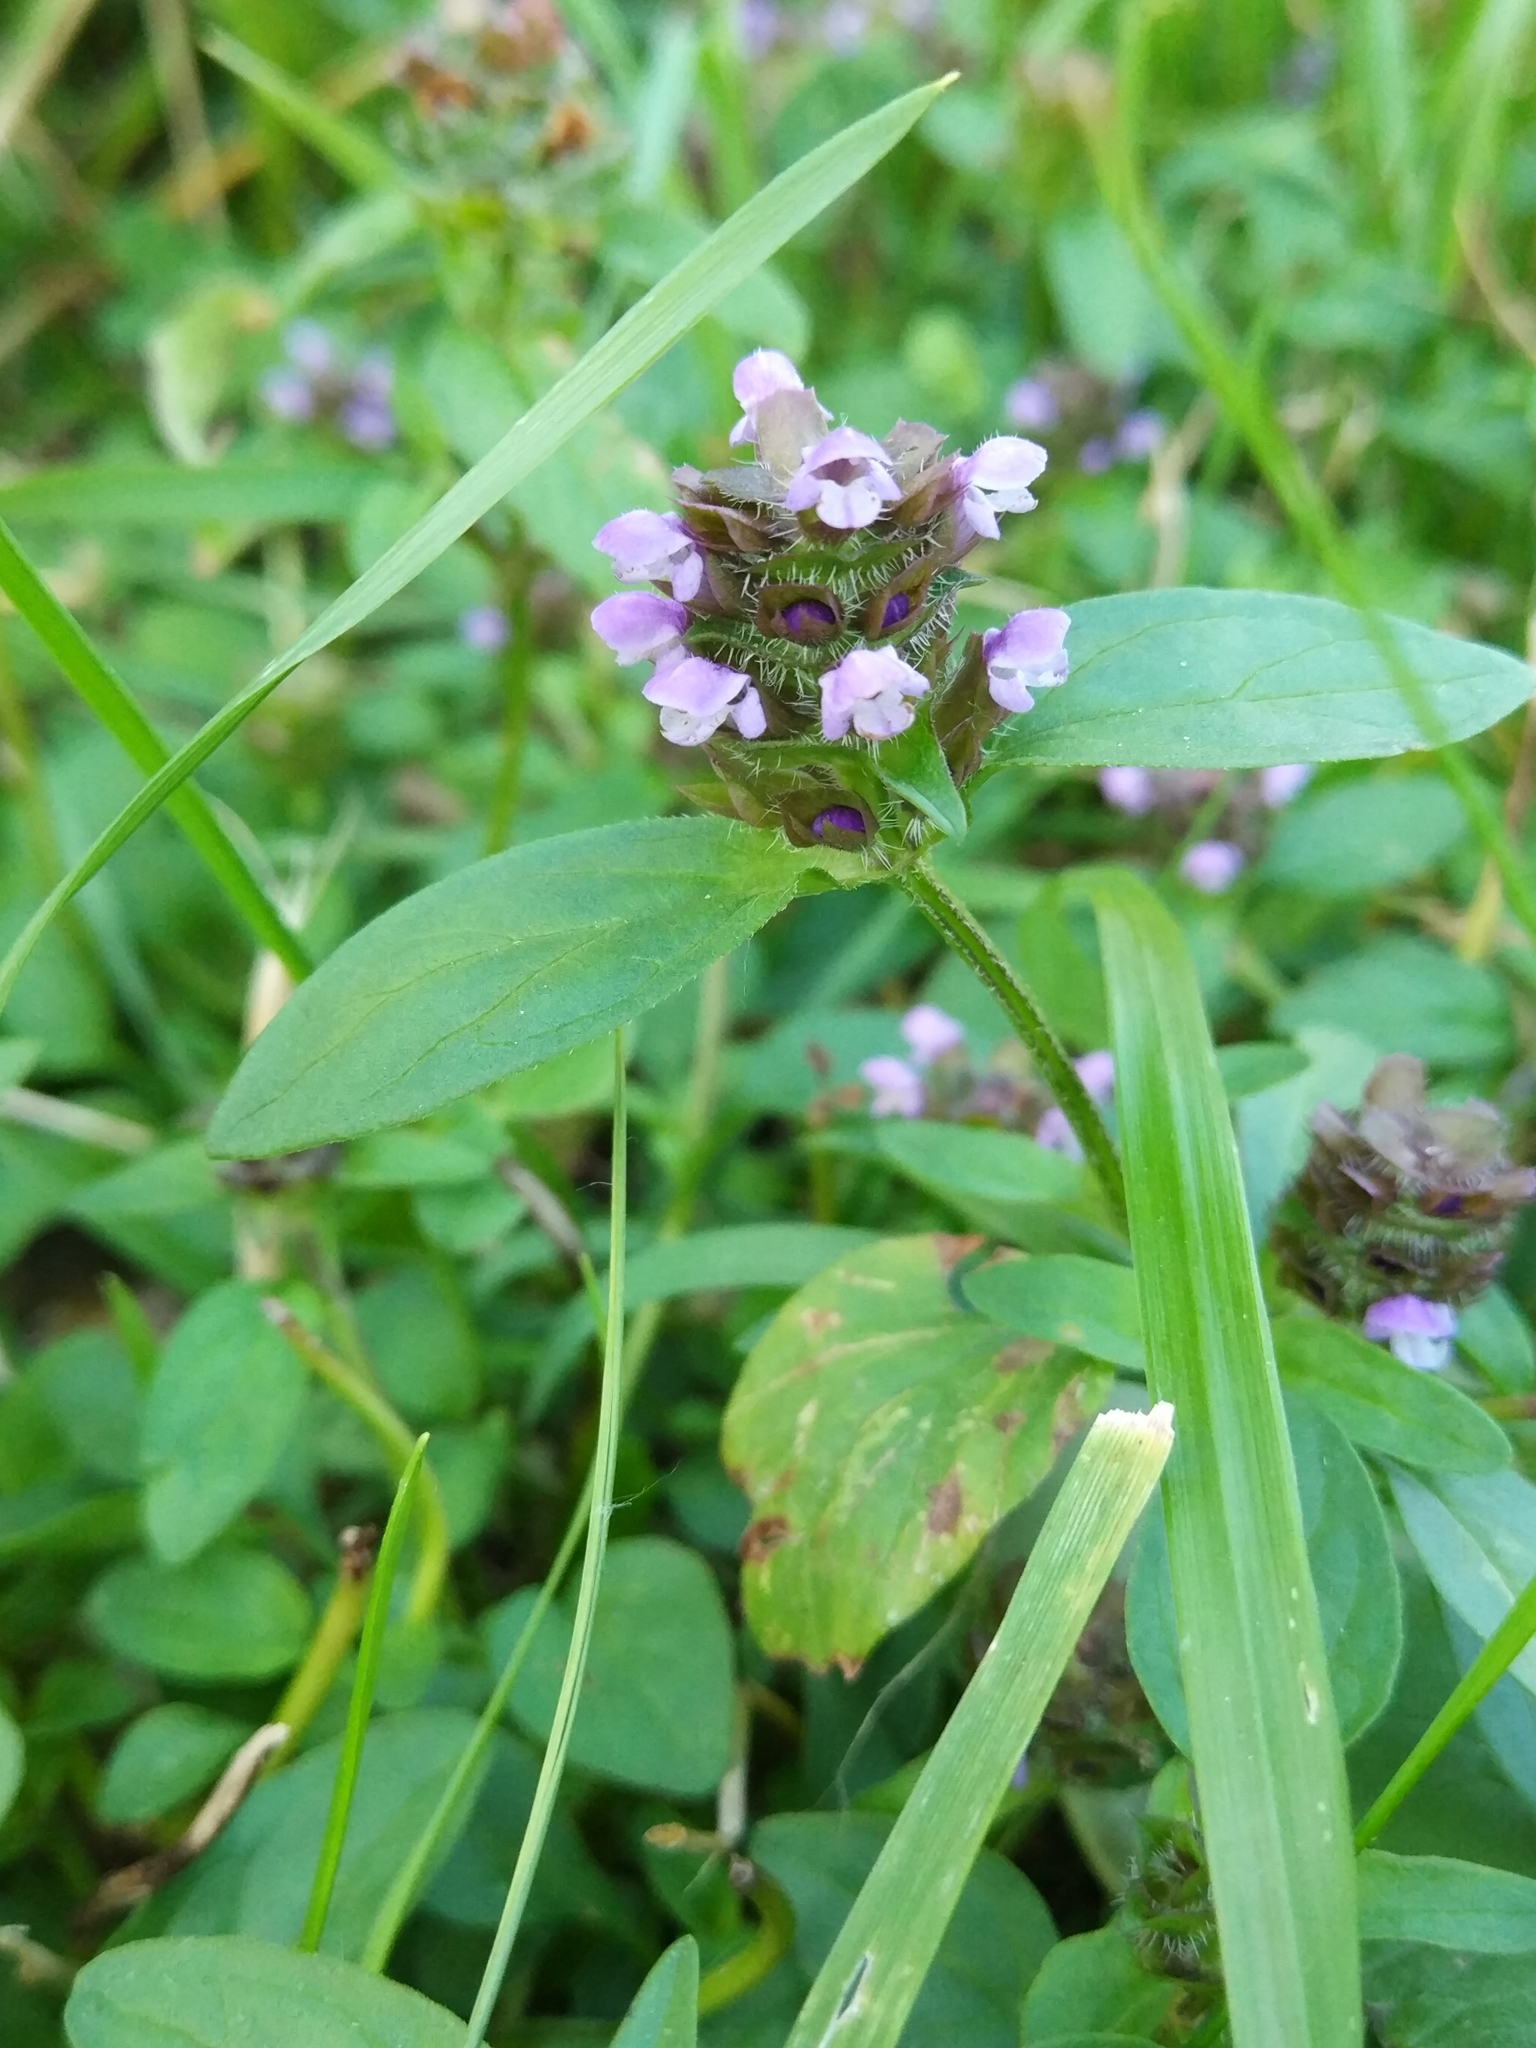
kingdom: Plantae
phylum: Tracheophyta
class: Magnoliopsida
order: Lamiales
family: Lamiaceae
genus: Prunella
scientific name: Prunella vulgaris
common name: Heal-all
